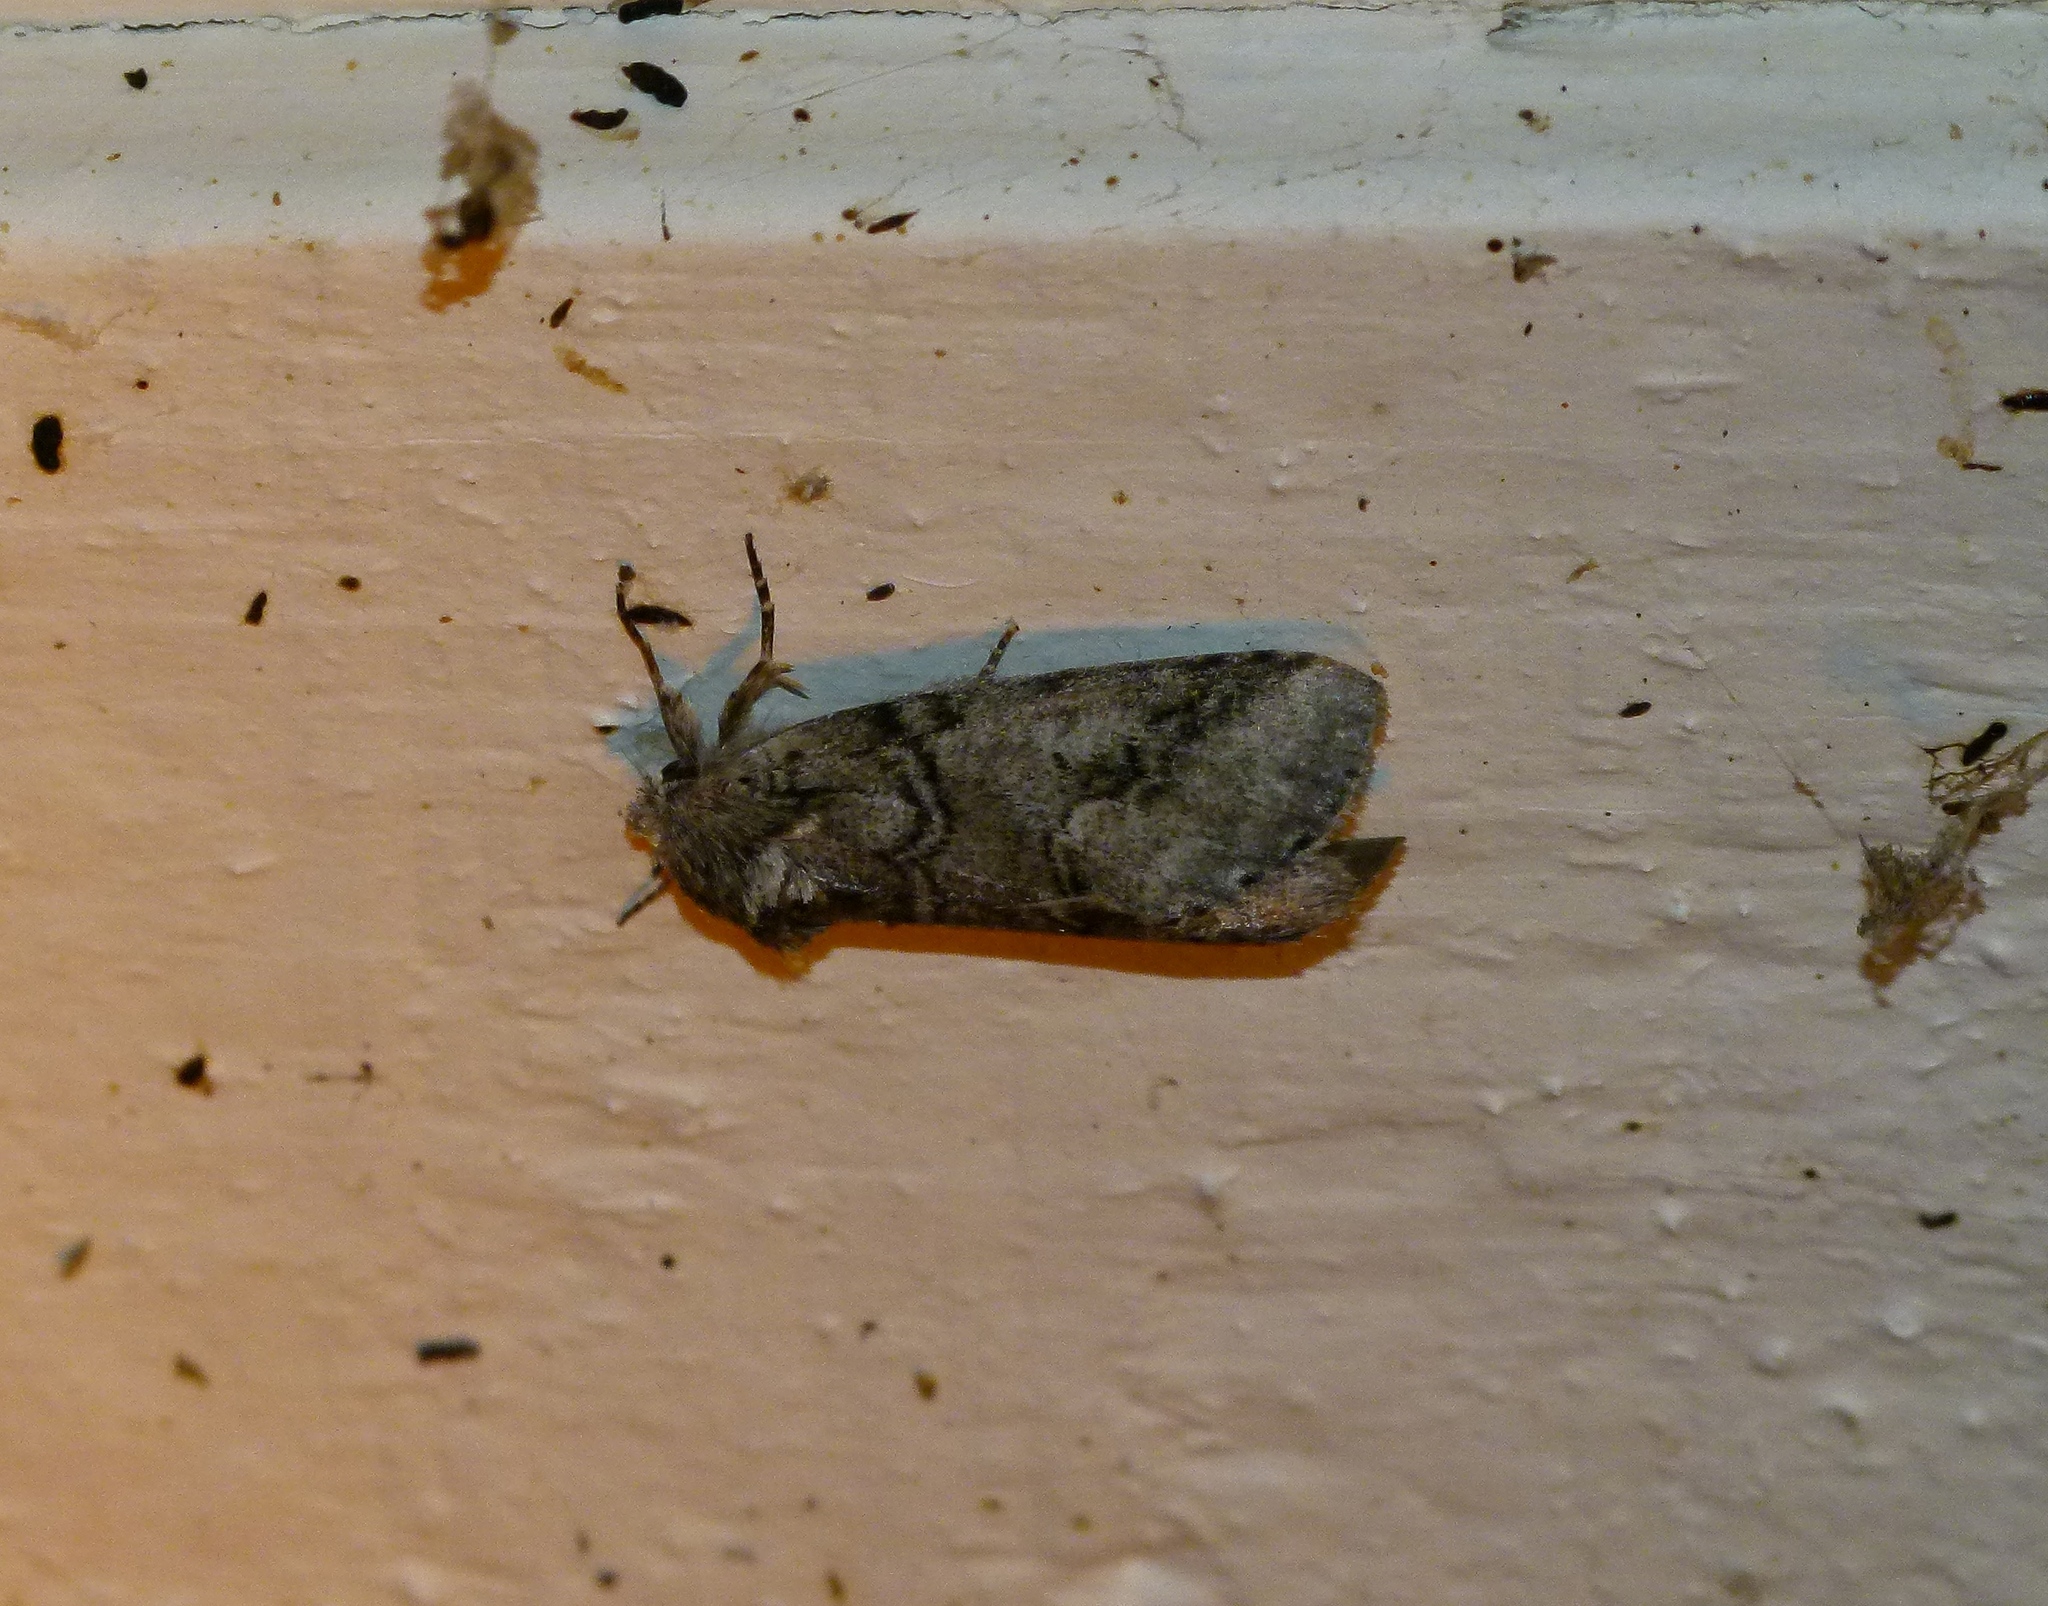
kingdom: Animalia
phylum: Arthropoda
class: Insecta
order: Lepidoptera
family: Notodontidae
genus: Lochmaeus
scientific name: Lochmaeus bilineata
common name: Double-lined prominent
